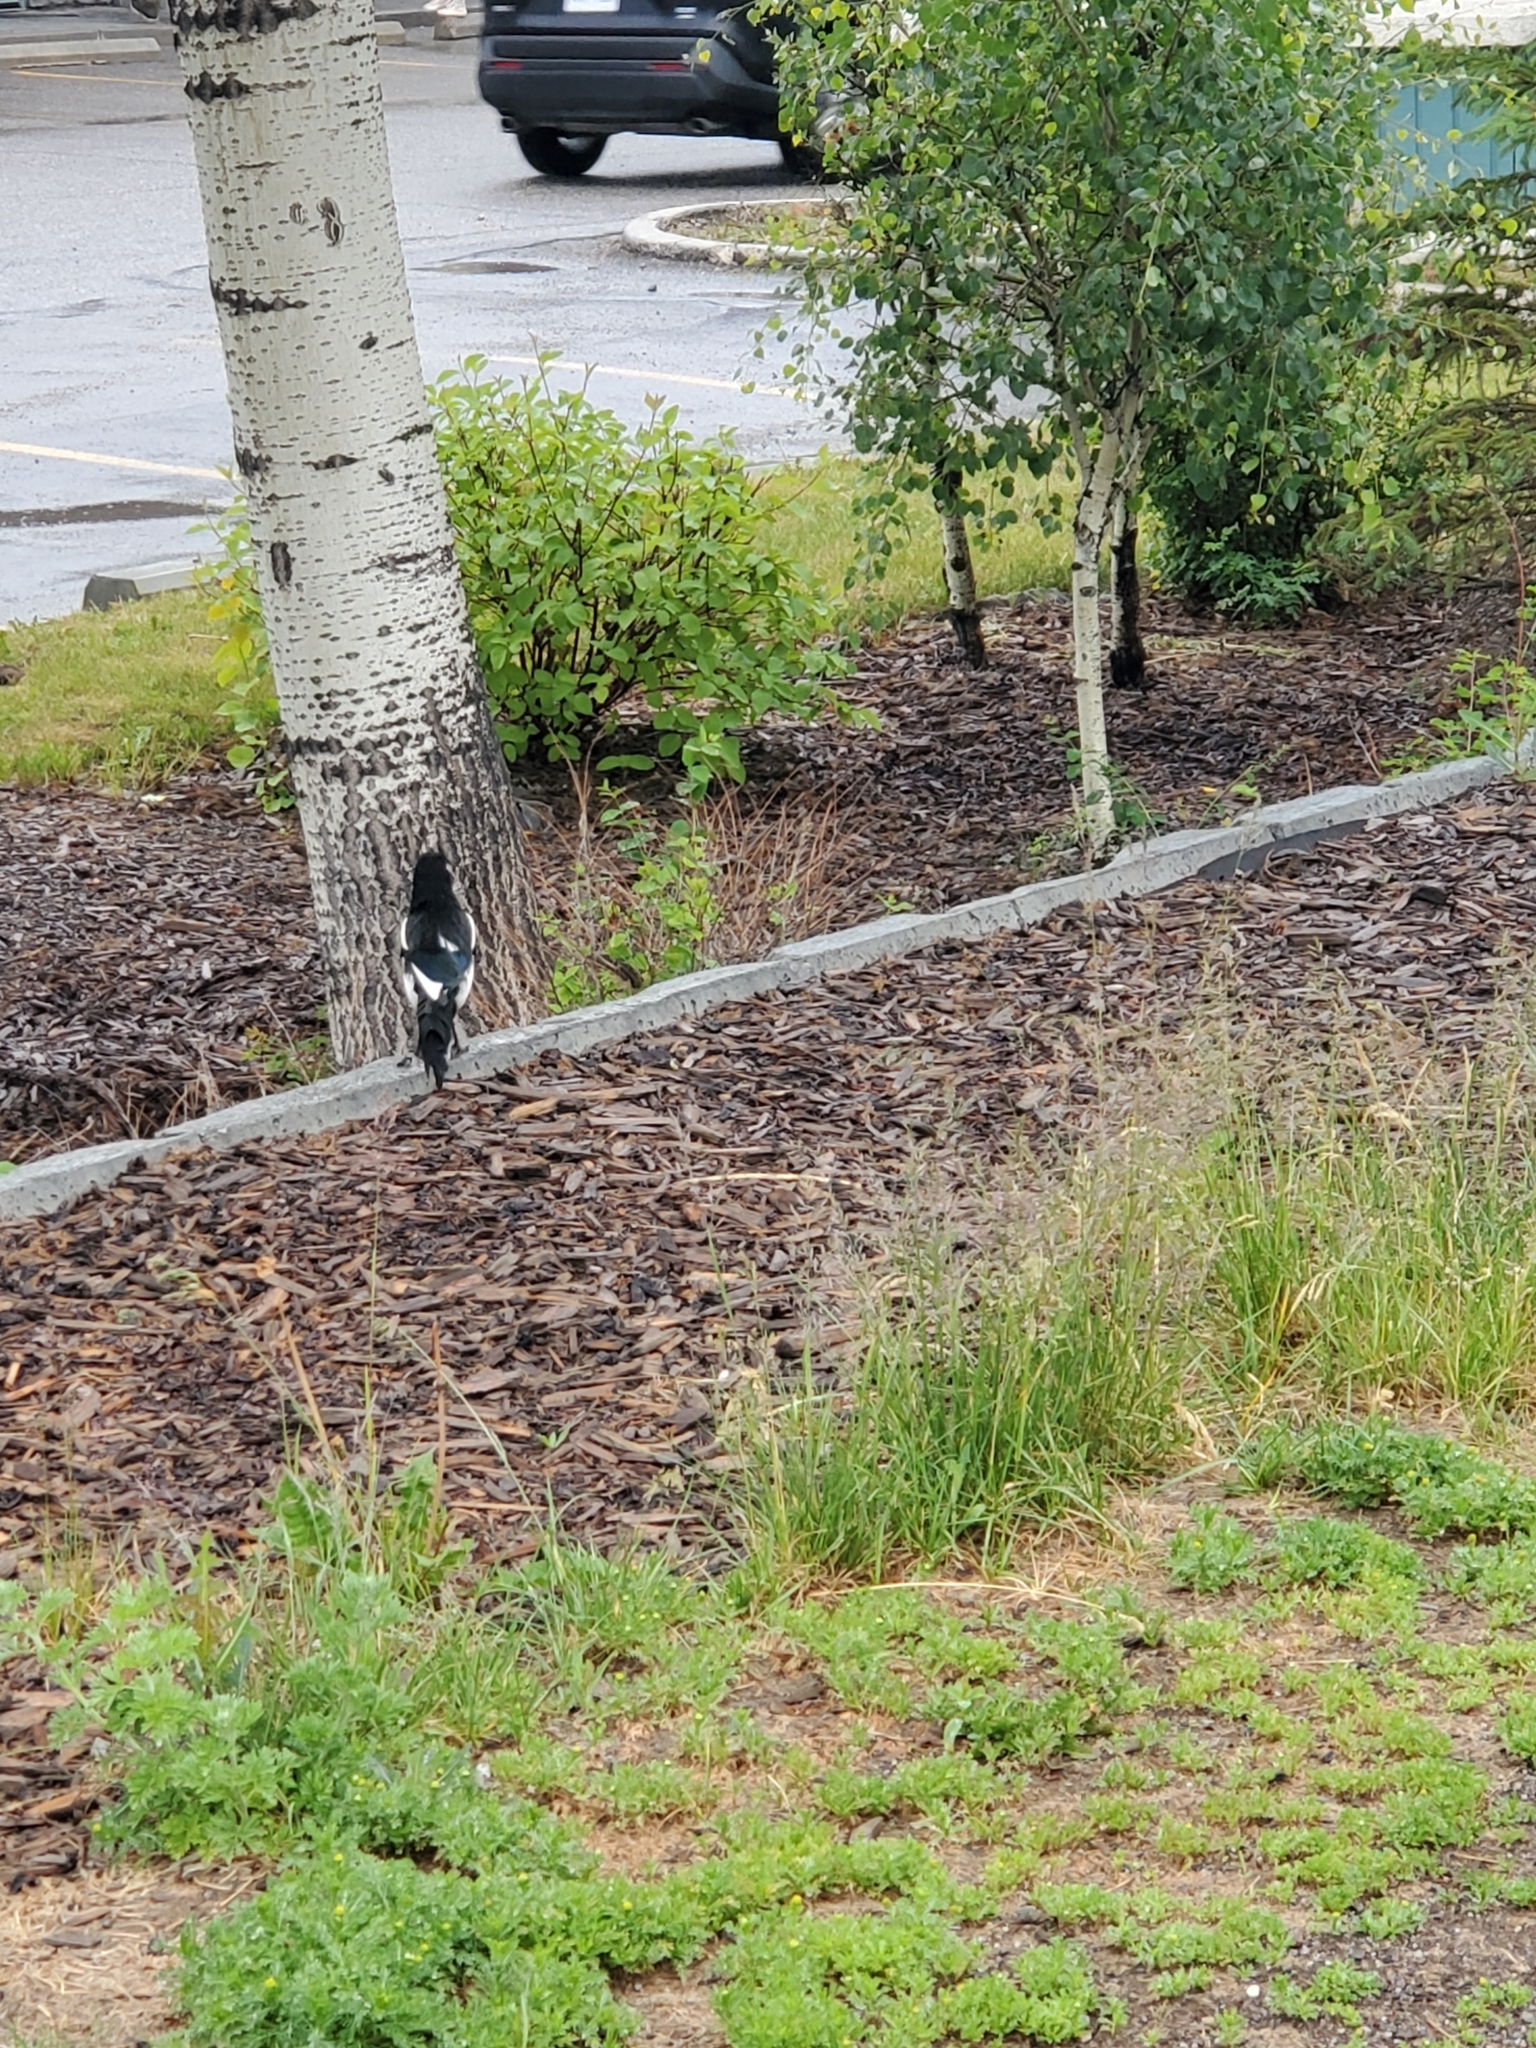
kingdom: Animalia
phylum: Chordata
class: Aves
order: Passeriformes
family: Corvidae
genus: Pica
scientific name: Pica hudsonia
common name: Black-billed magpie
